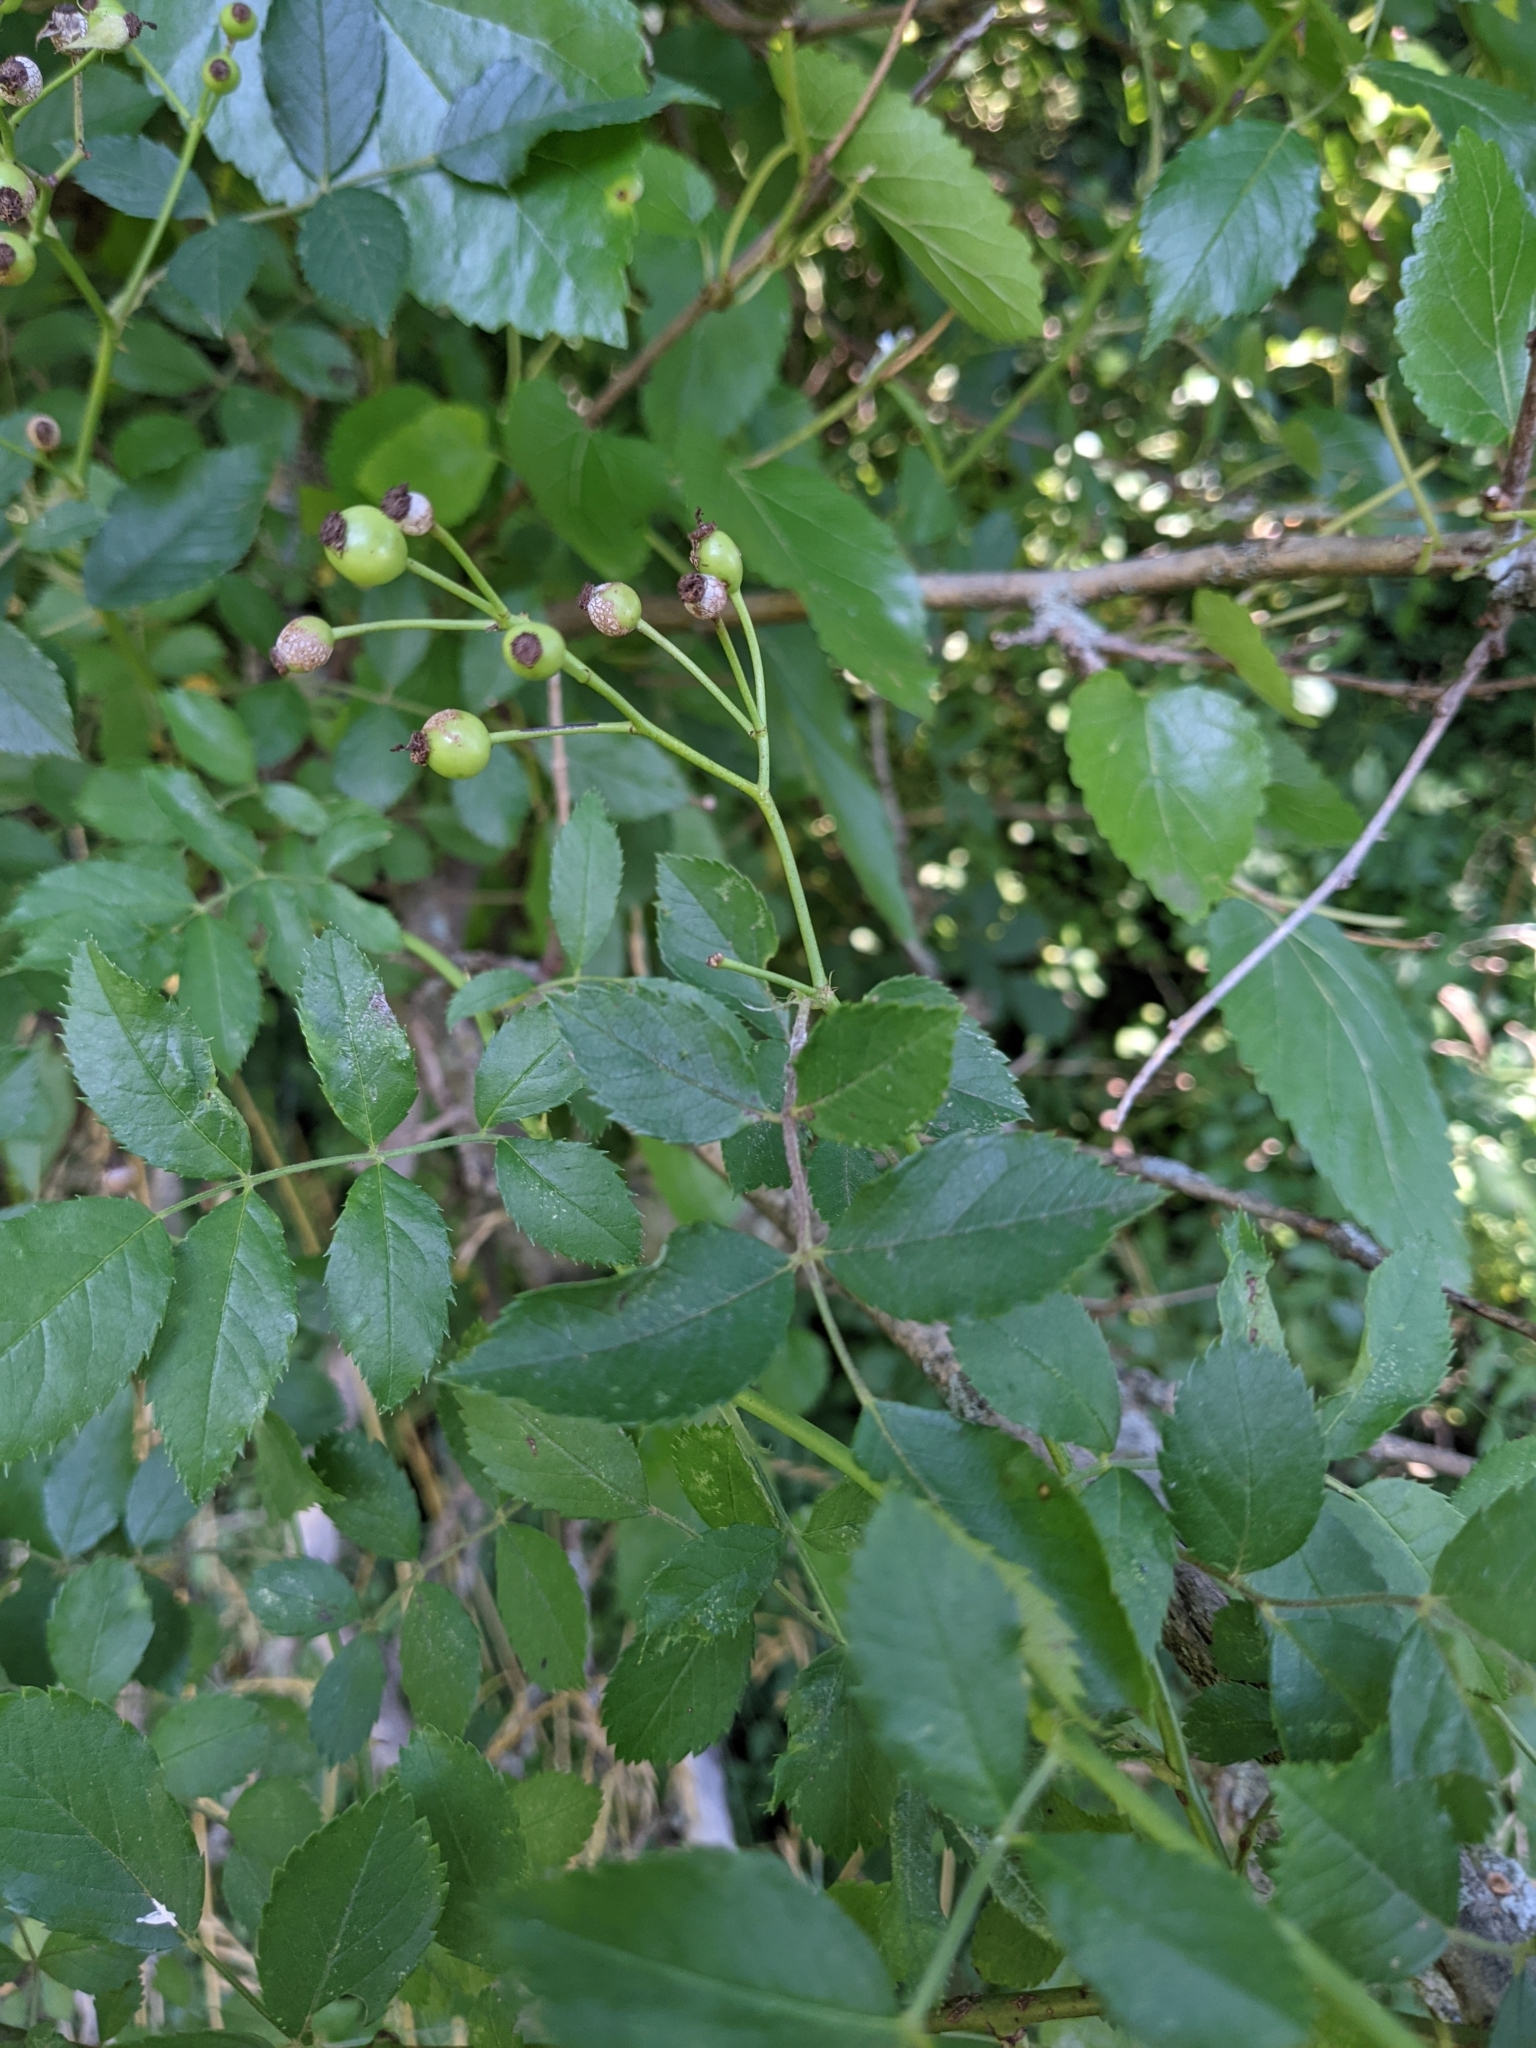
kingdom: Plantae
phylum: Tracheophyta
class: Magnoliopsida
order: Rosales
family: Rosaceae
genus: Rosa
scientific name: Rosa multiflora
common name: Multiflora rose
